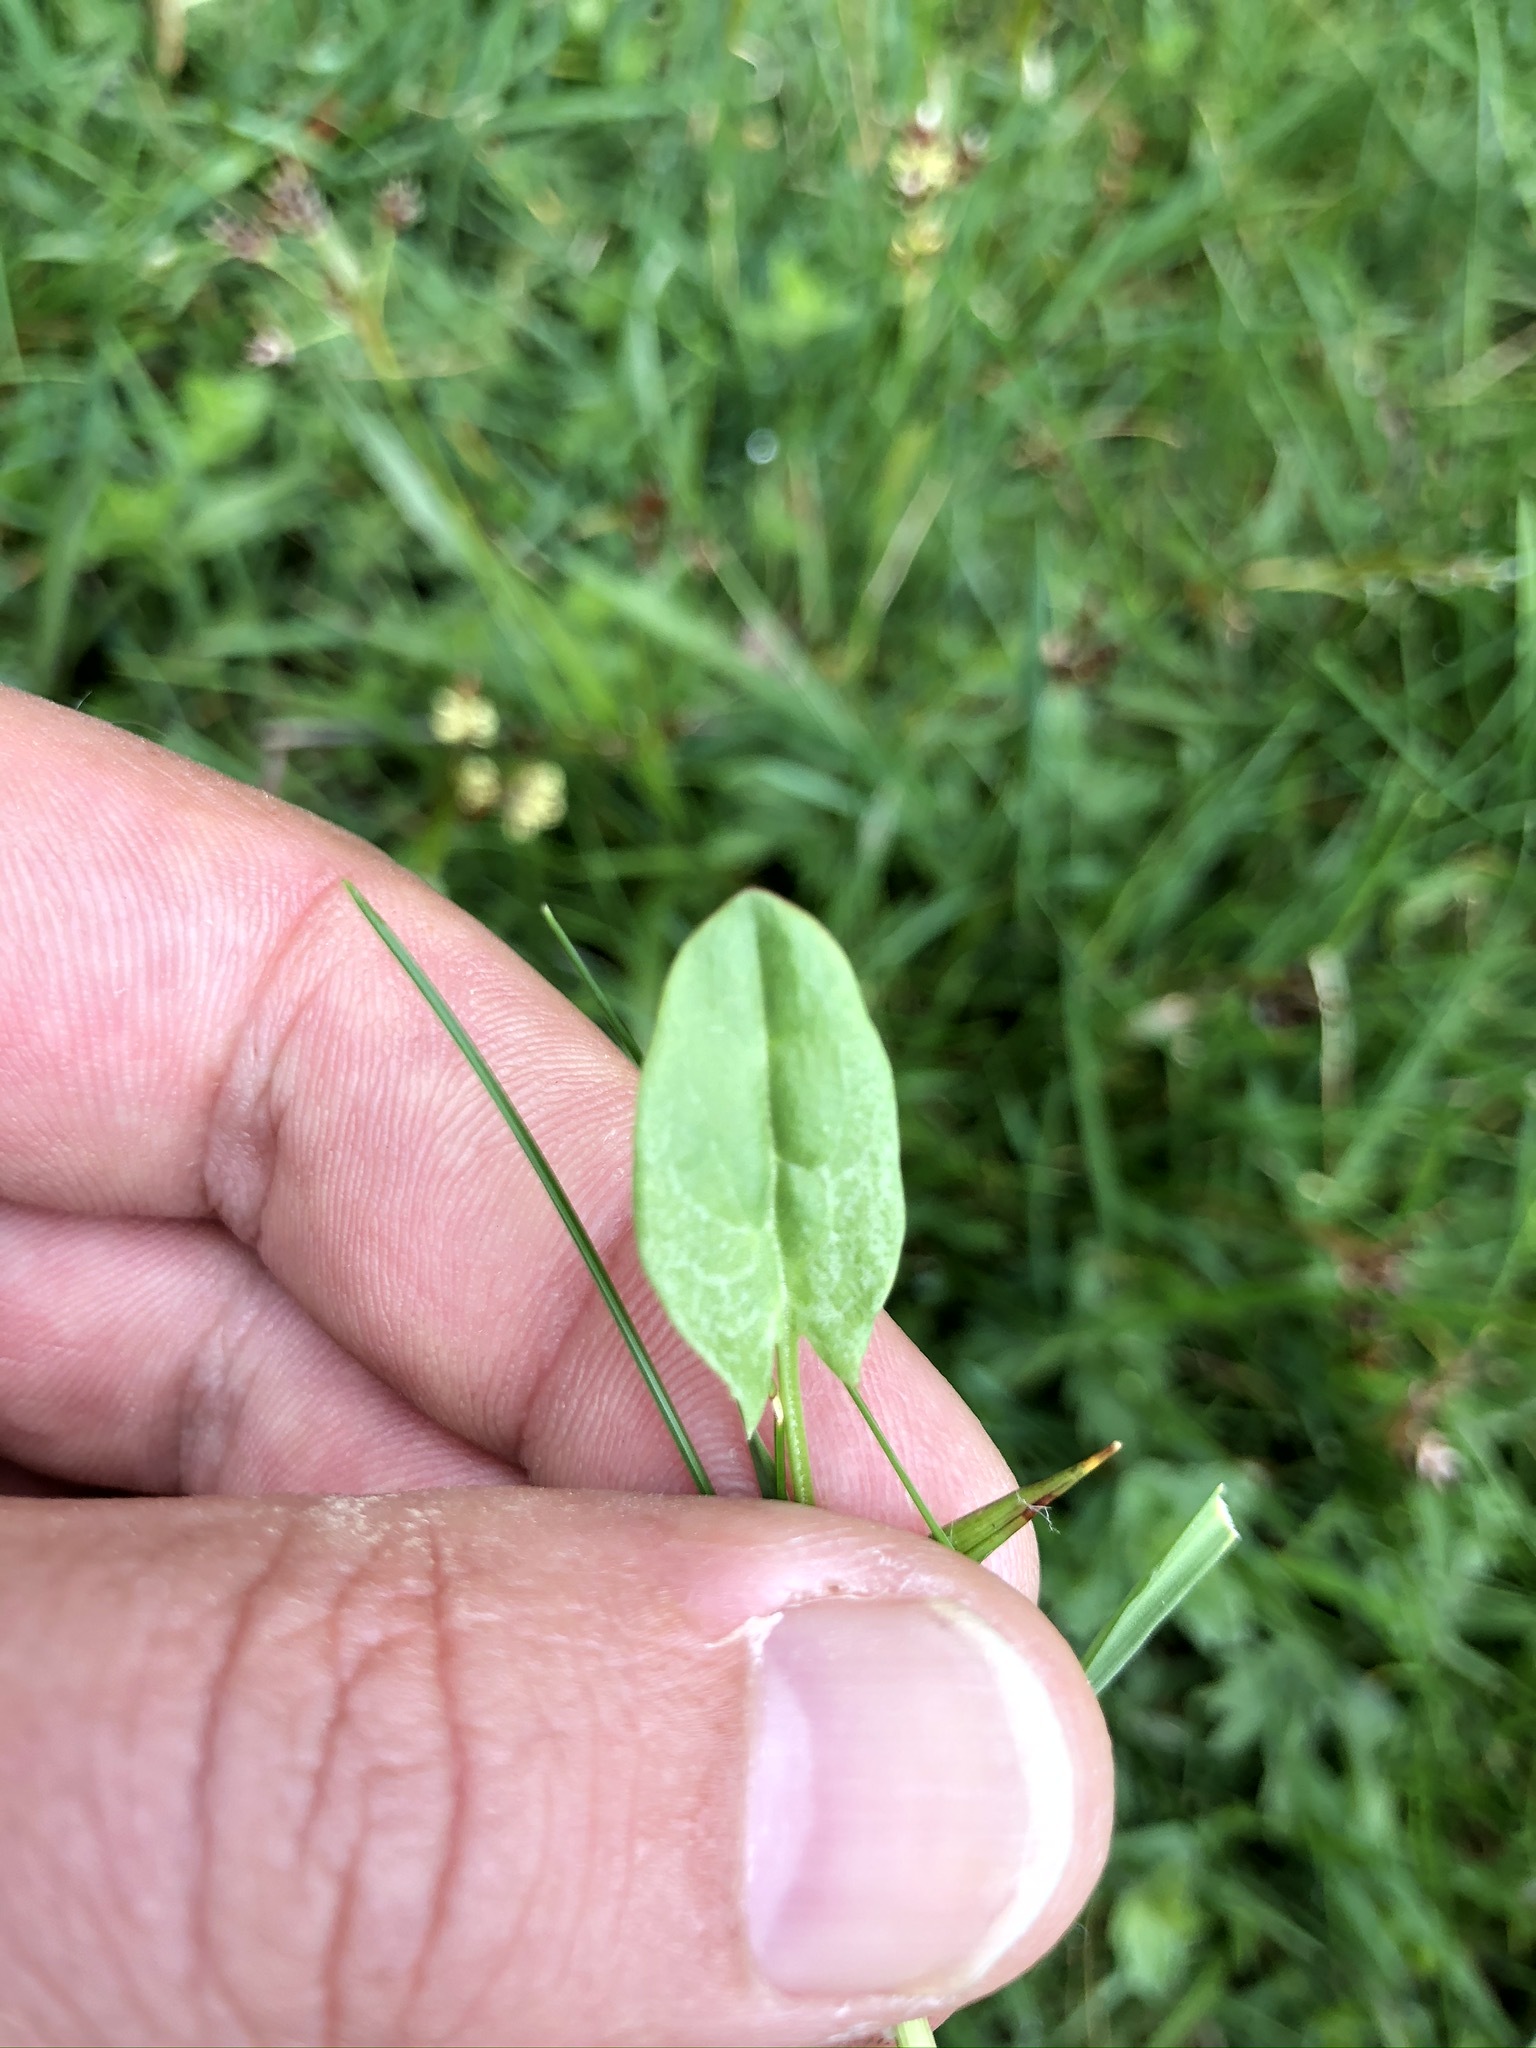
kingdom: Plantae
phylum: Tracheophyta
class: Magnoliopsida
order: Caryophyllales
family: Polygonaceae
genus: Rumex
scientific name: Rumex acetosa
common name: Garden sorrel
